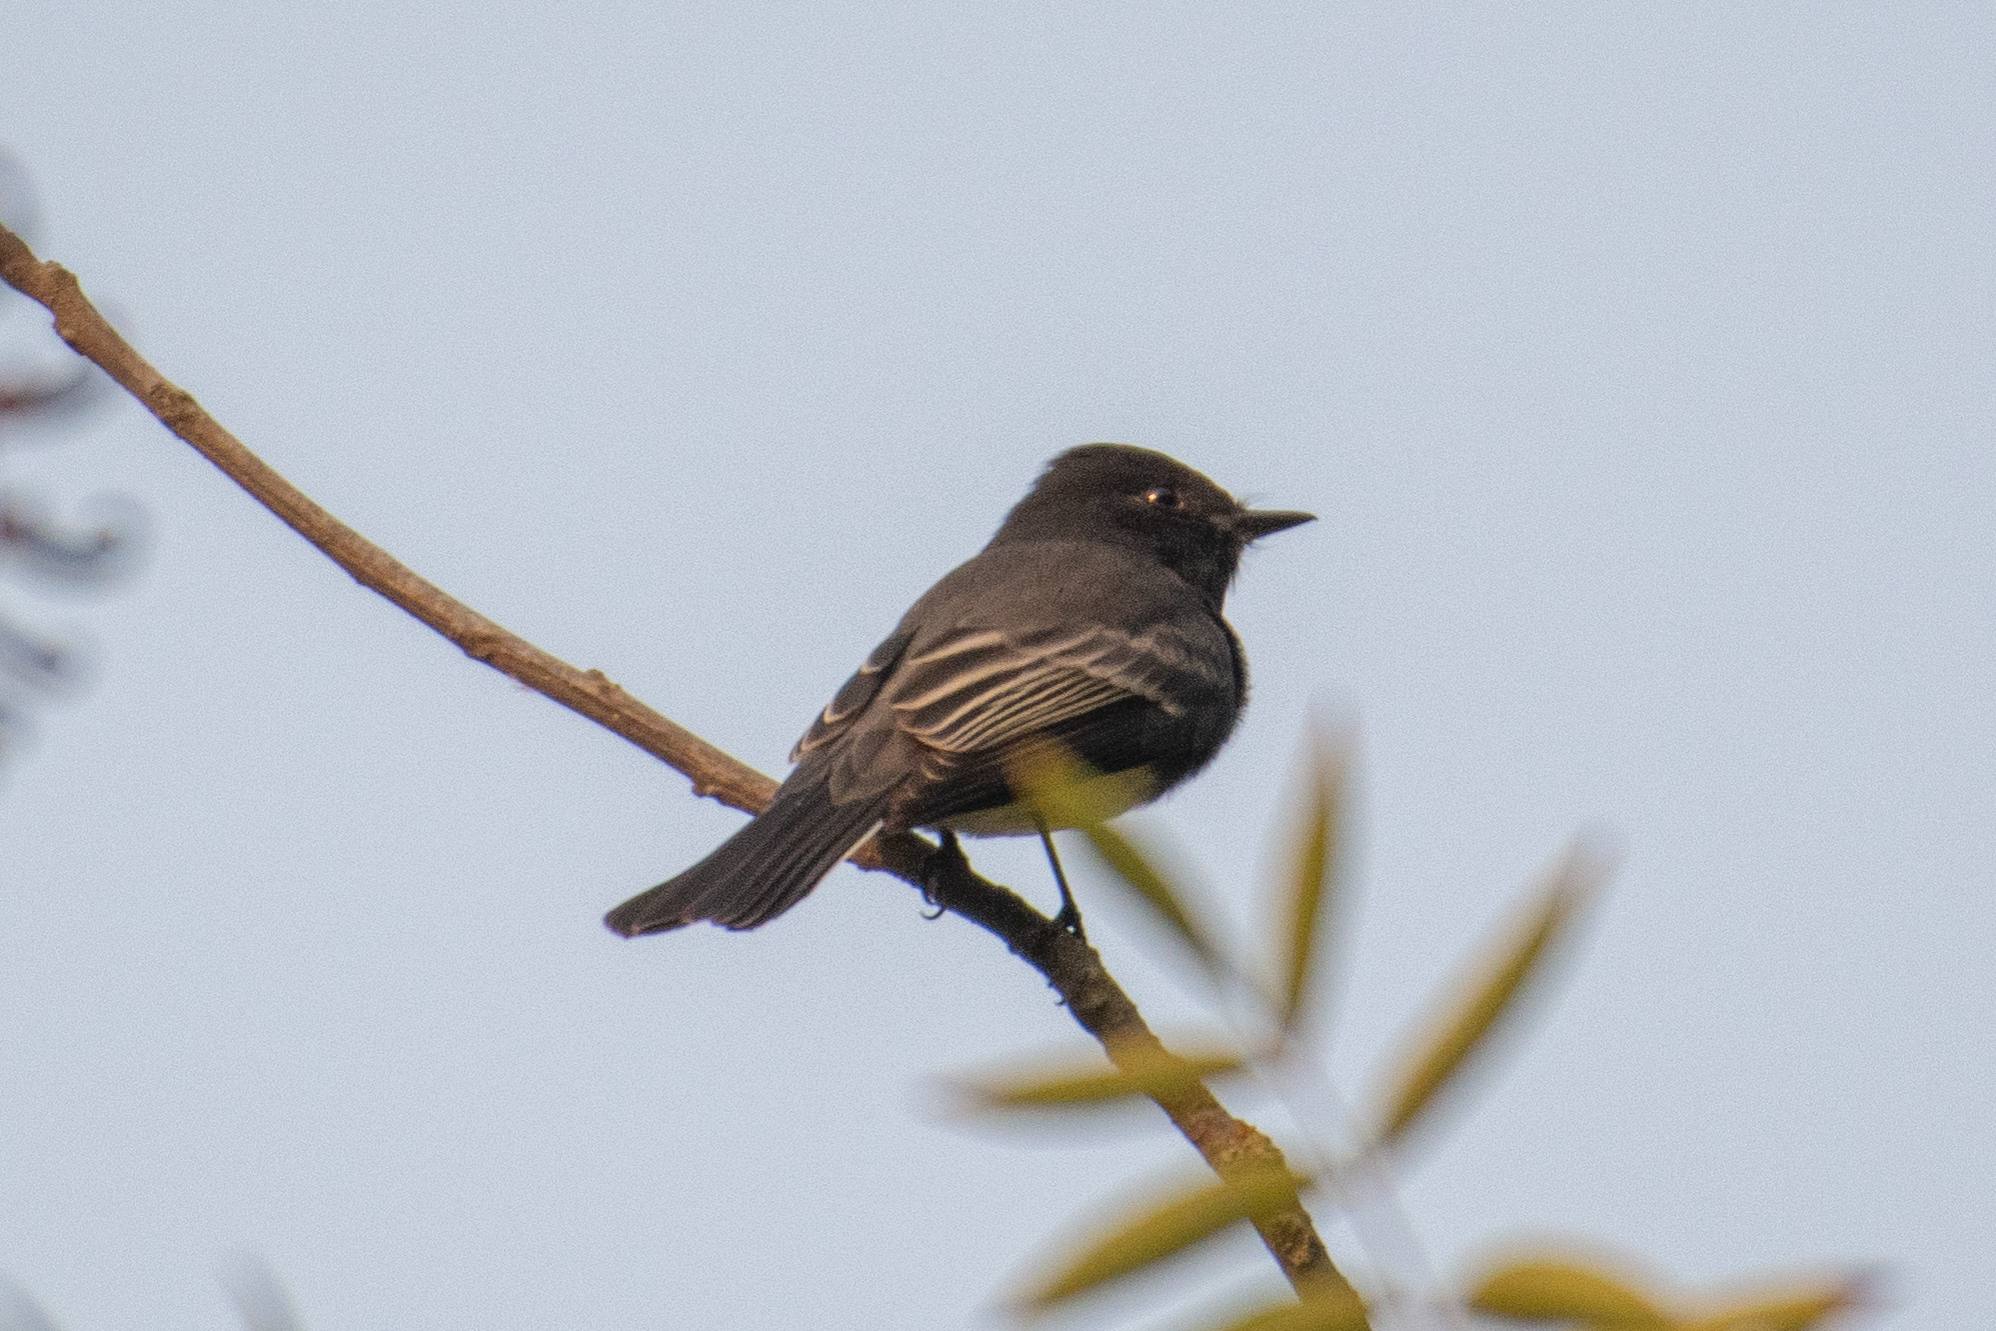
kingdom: Animalia
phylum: Chordata
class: Aves
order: Passeriformes
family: Tyrannidae
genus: Sayornis
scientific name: Sayornis nigricans
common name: Black phoebe
